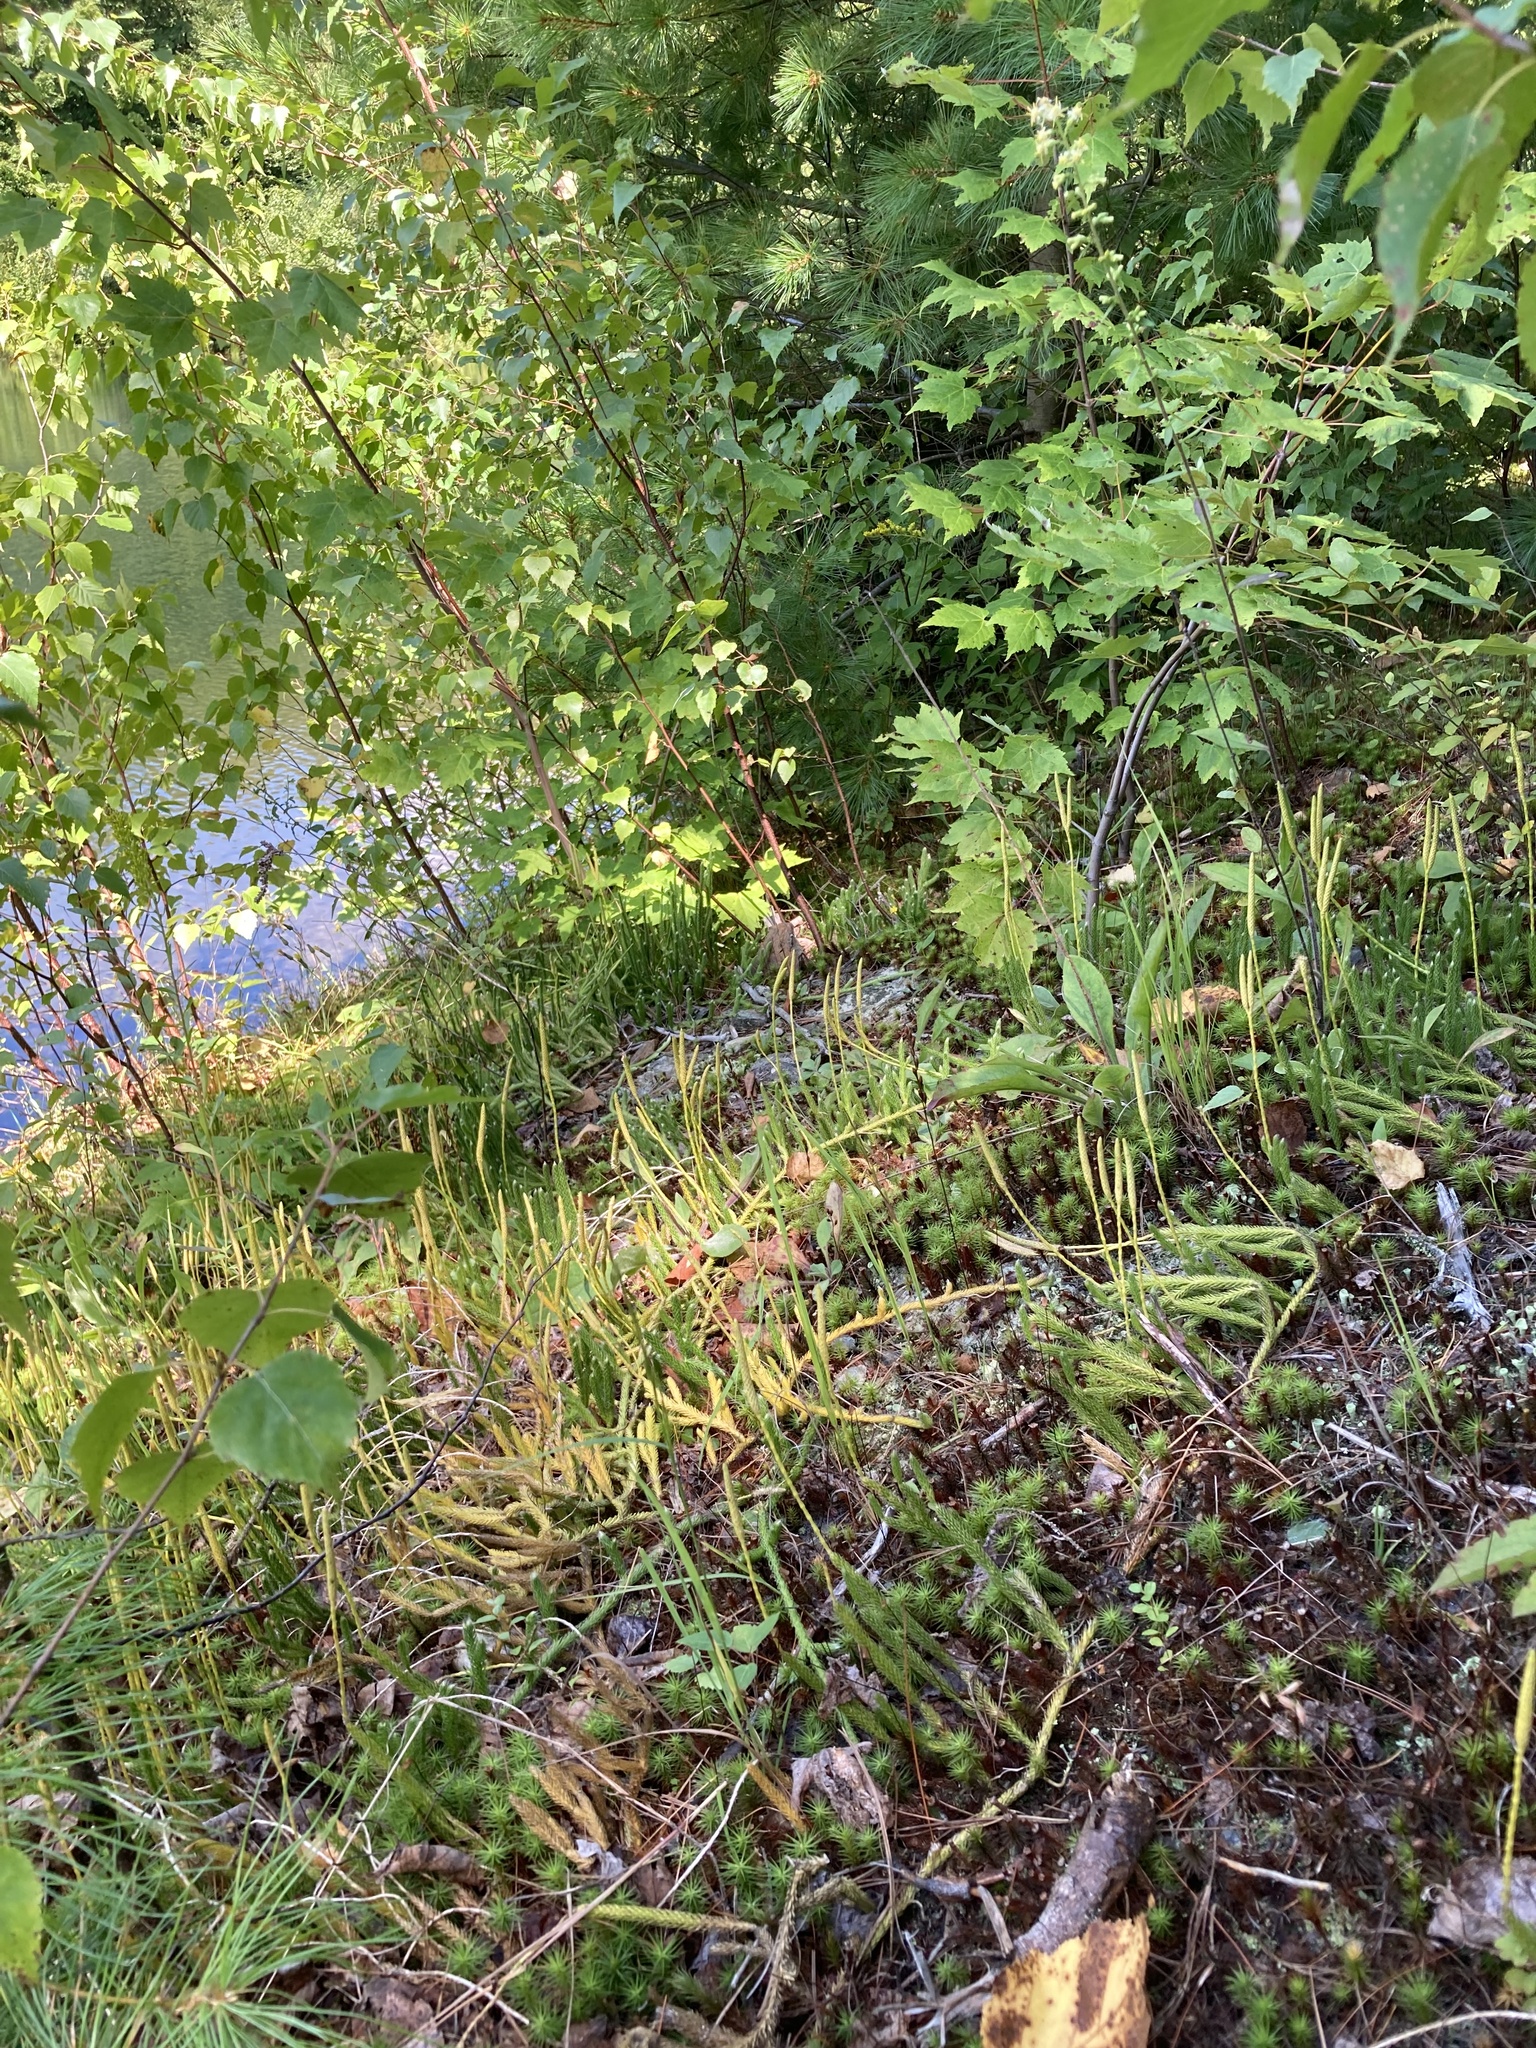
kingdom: Plantae
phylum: Tracheophyta
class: Lycopodiopsida
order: Lycopodiales
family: Lycopodiaceae
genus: Lycopodium
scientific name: Lycopodium lagopus
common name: One-cone clubmoss
